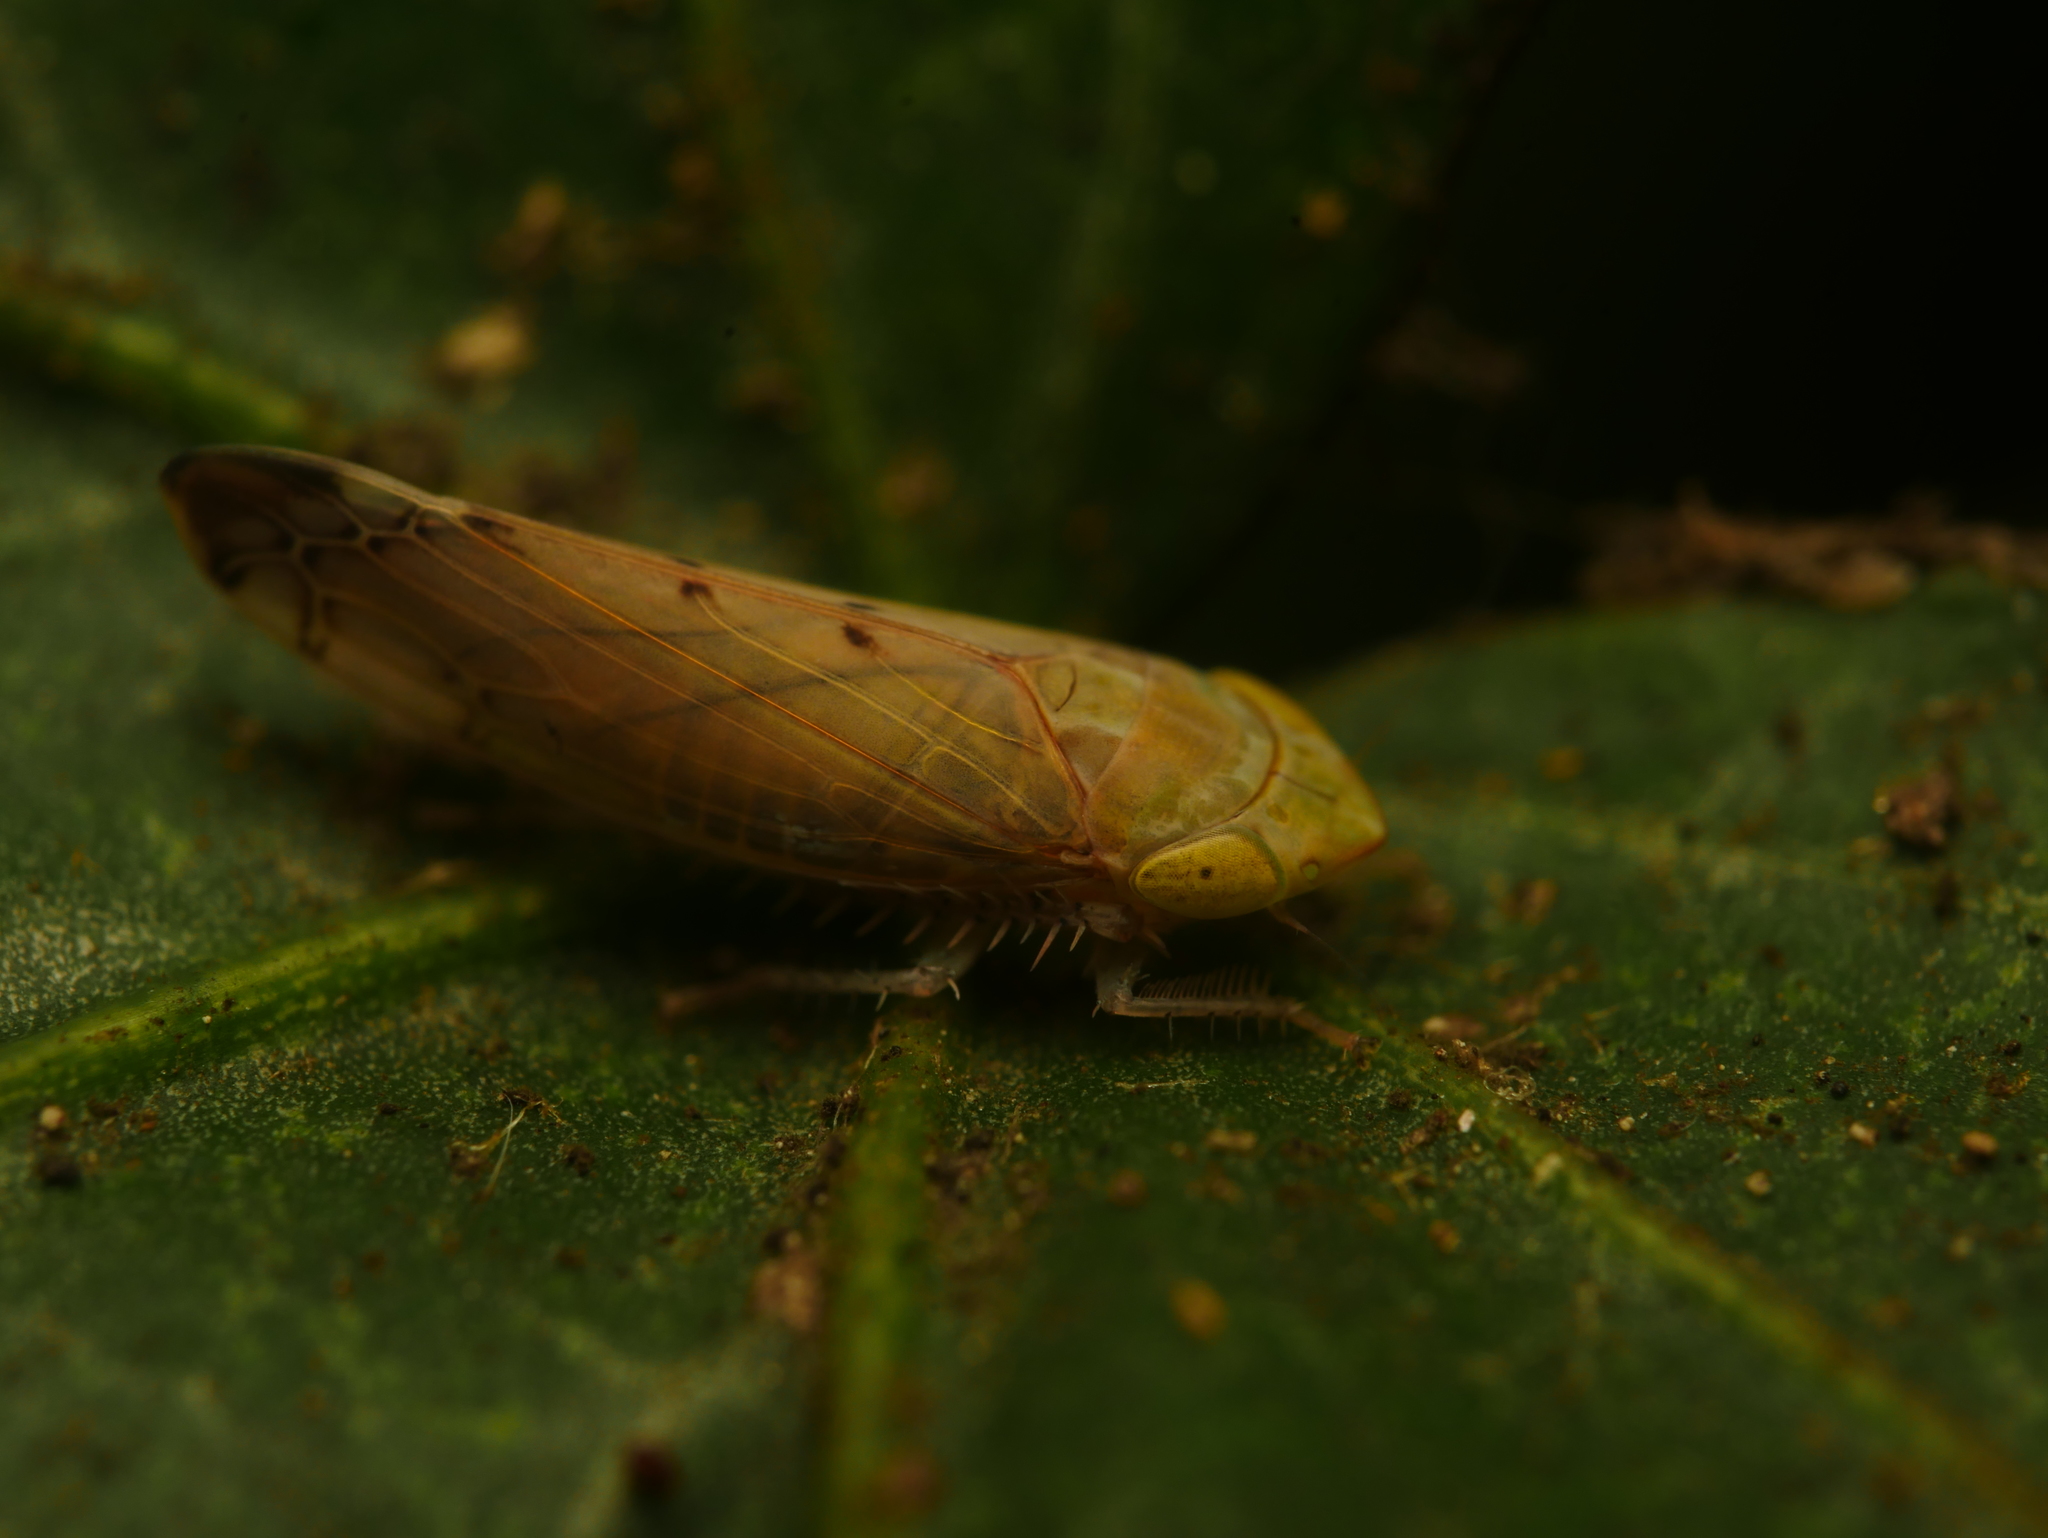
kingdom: Animalia
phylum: Arthropoda
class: Insecta
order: Hemiptera
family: Cicadellidae
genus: Synophropsis
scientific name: Synophropsis lauri
